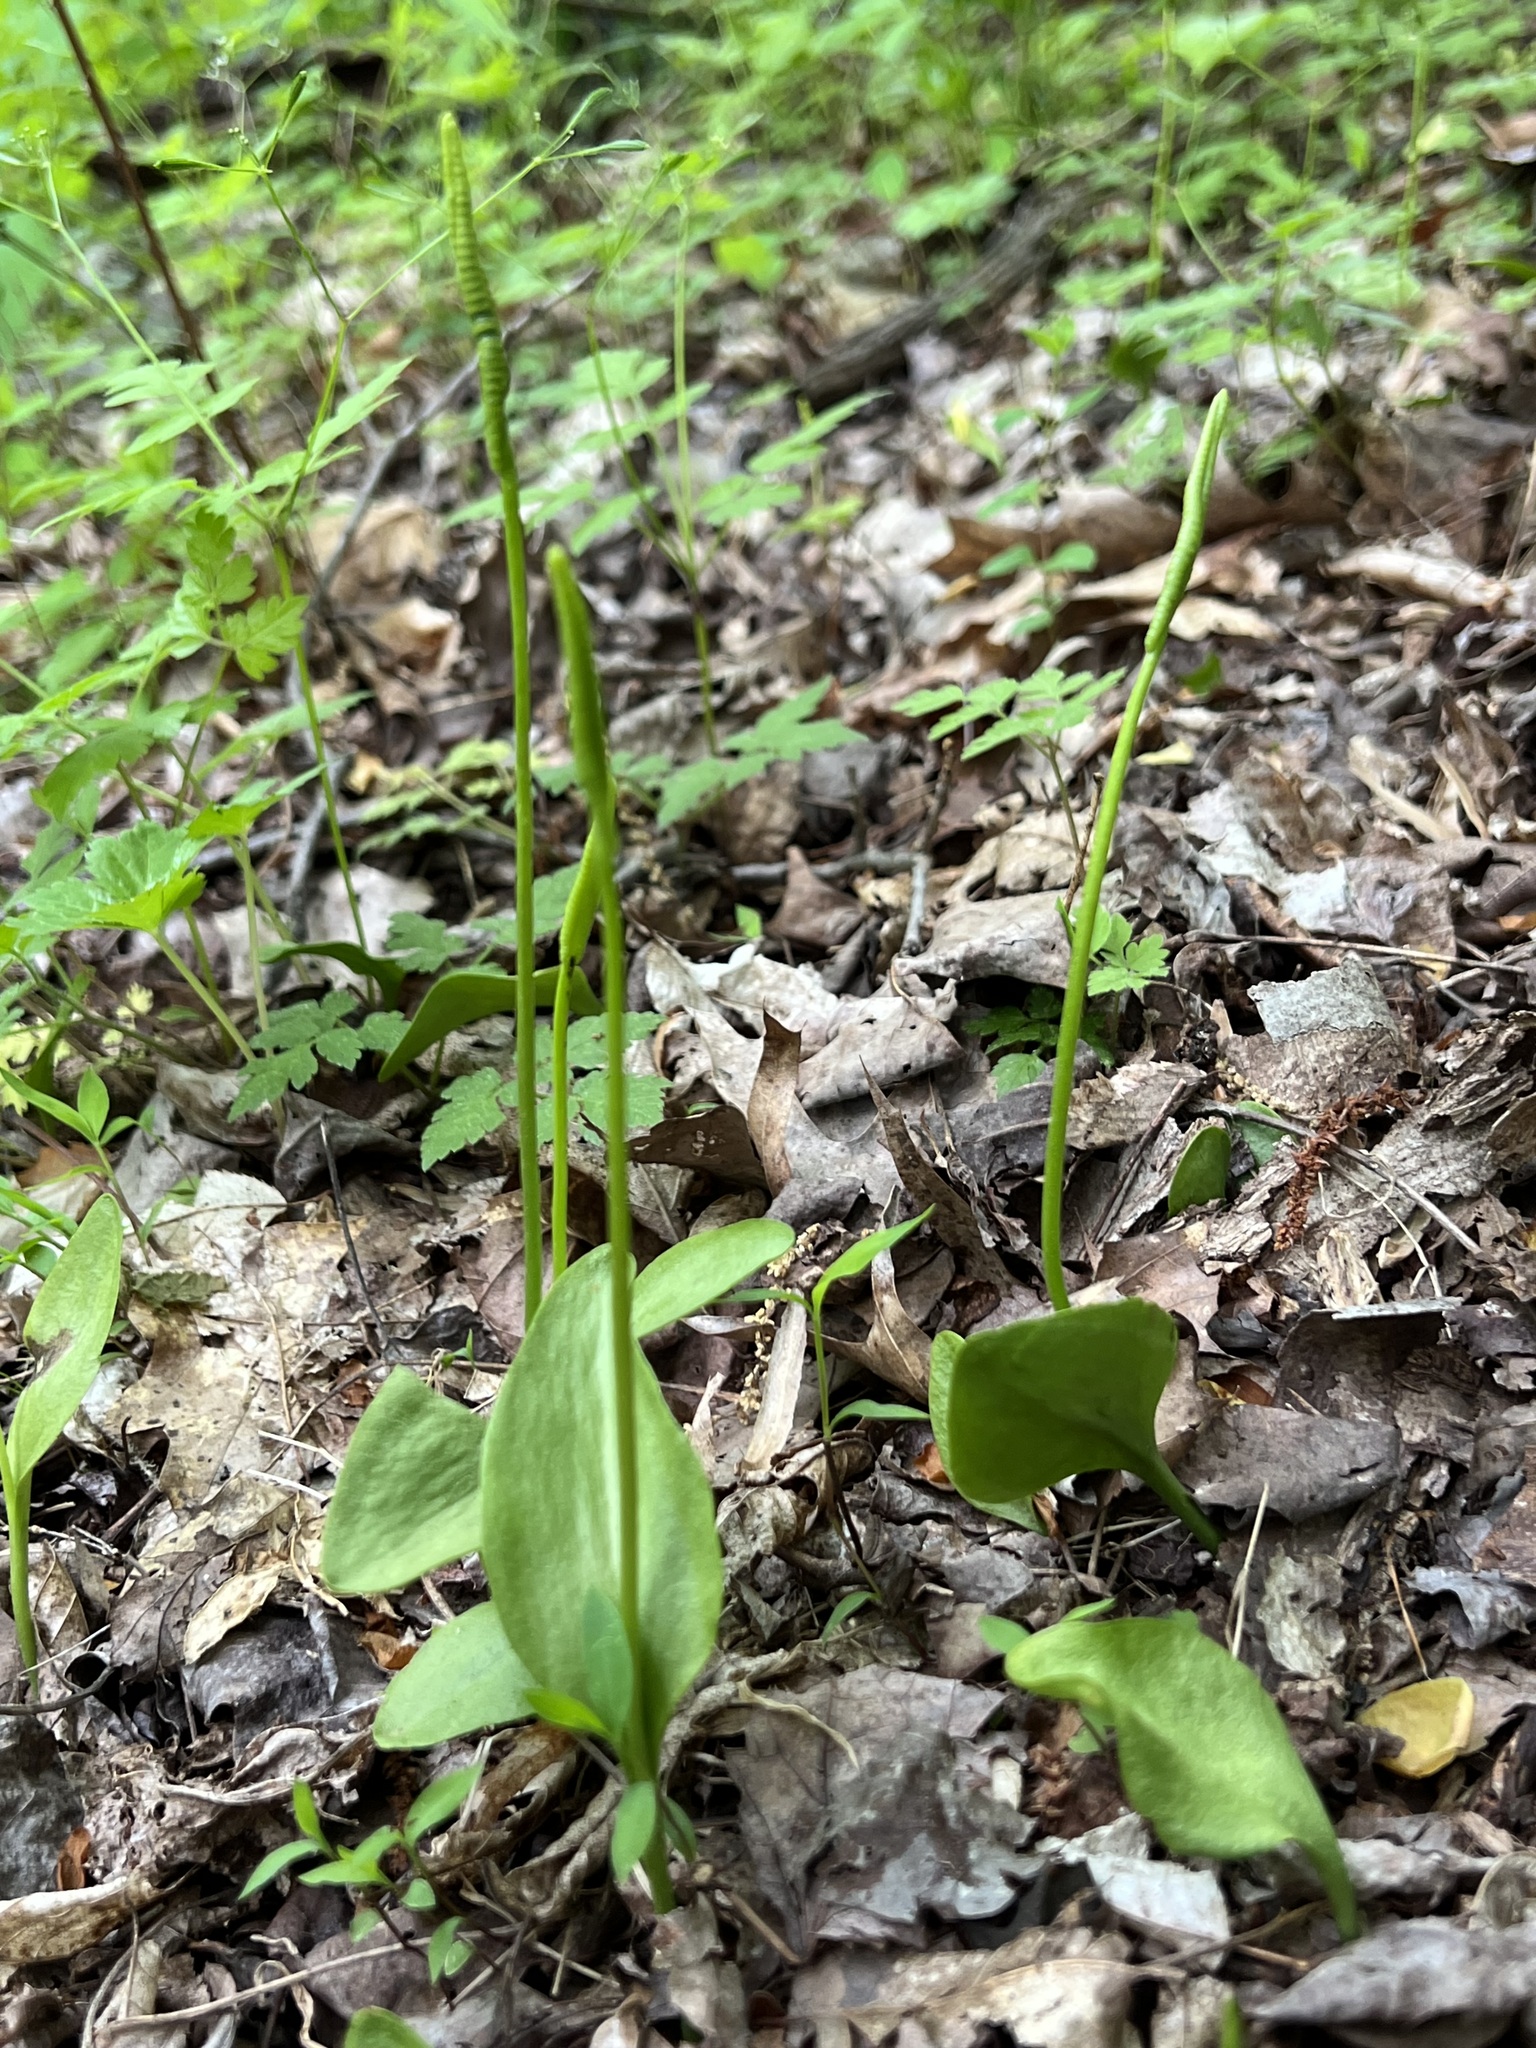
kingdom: Plantae
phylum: Tracheophyta
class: Polypodiopsida
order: Ophioglossales
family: Ophioglossaceae
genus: Ophioglossum
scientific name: Ophioglossum vulgatum
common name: Adder's-tongue
